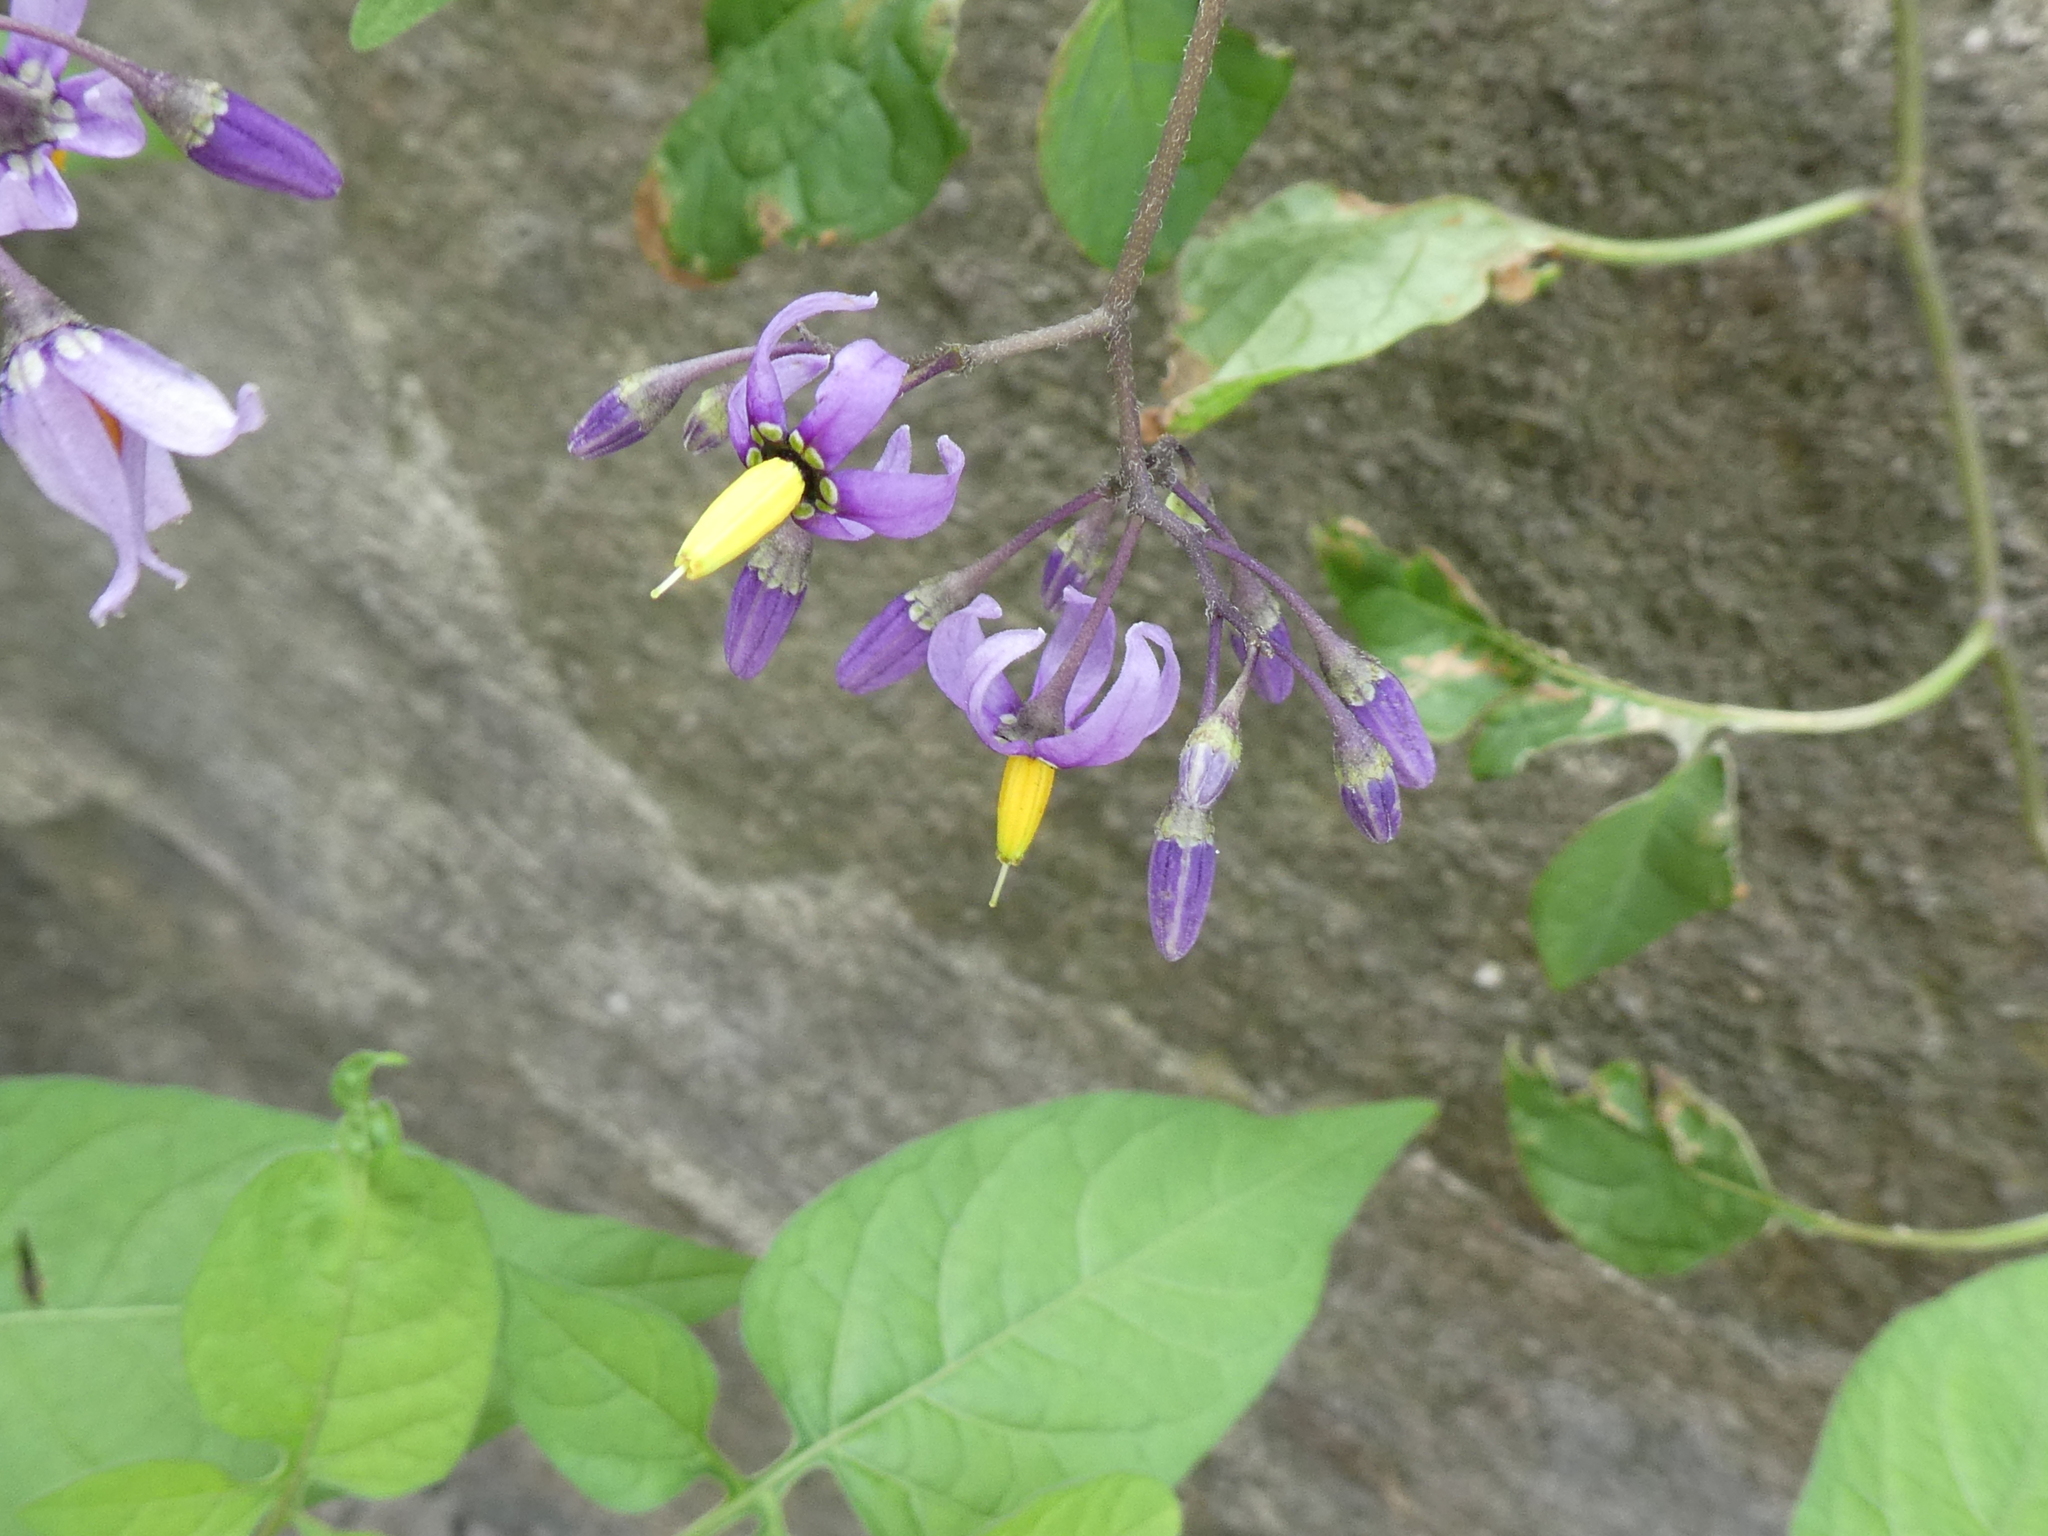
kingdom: Plantae
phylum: Tracheophyta
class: Magnoliopsida
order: Solanales
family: Solanaceae
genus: Solanum
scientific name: Solanum dulcamara
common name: Climbing nightshade
